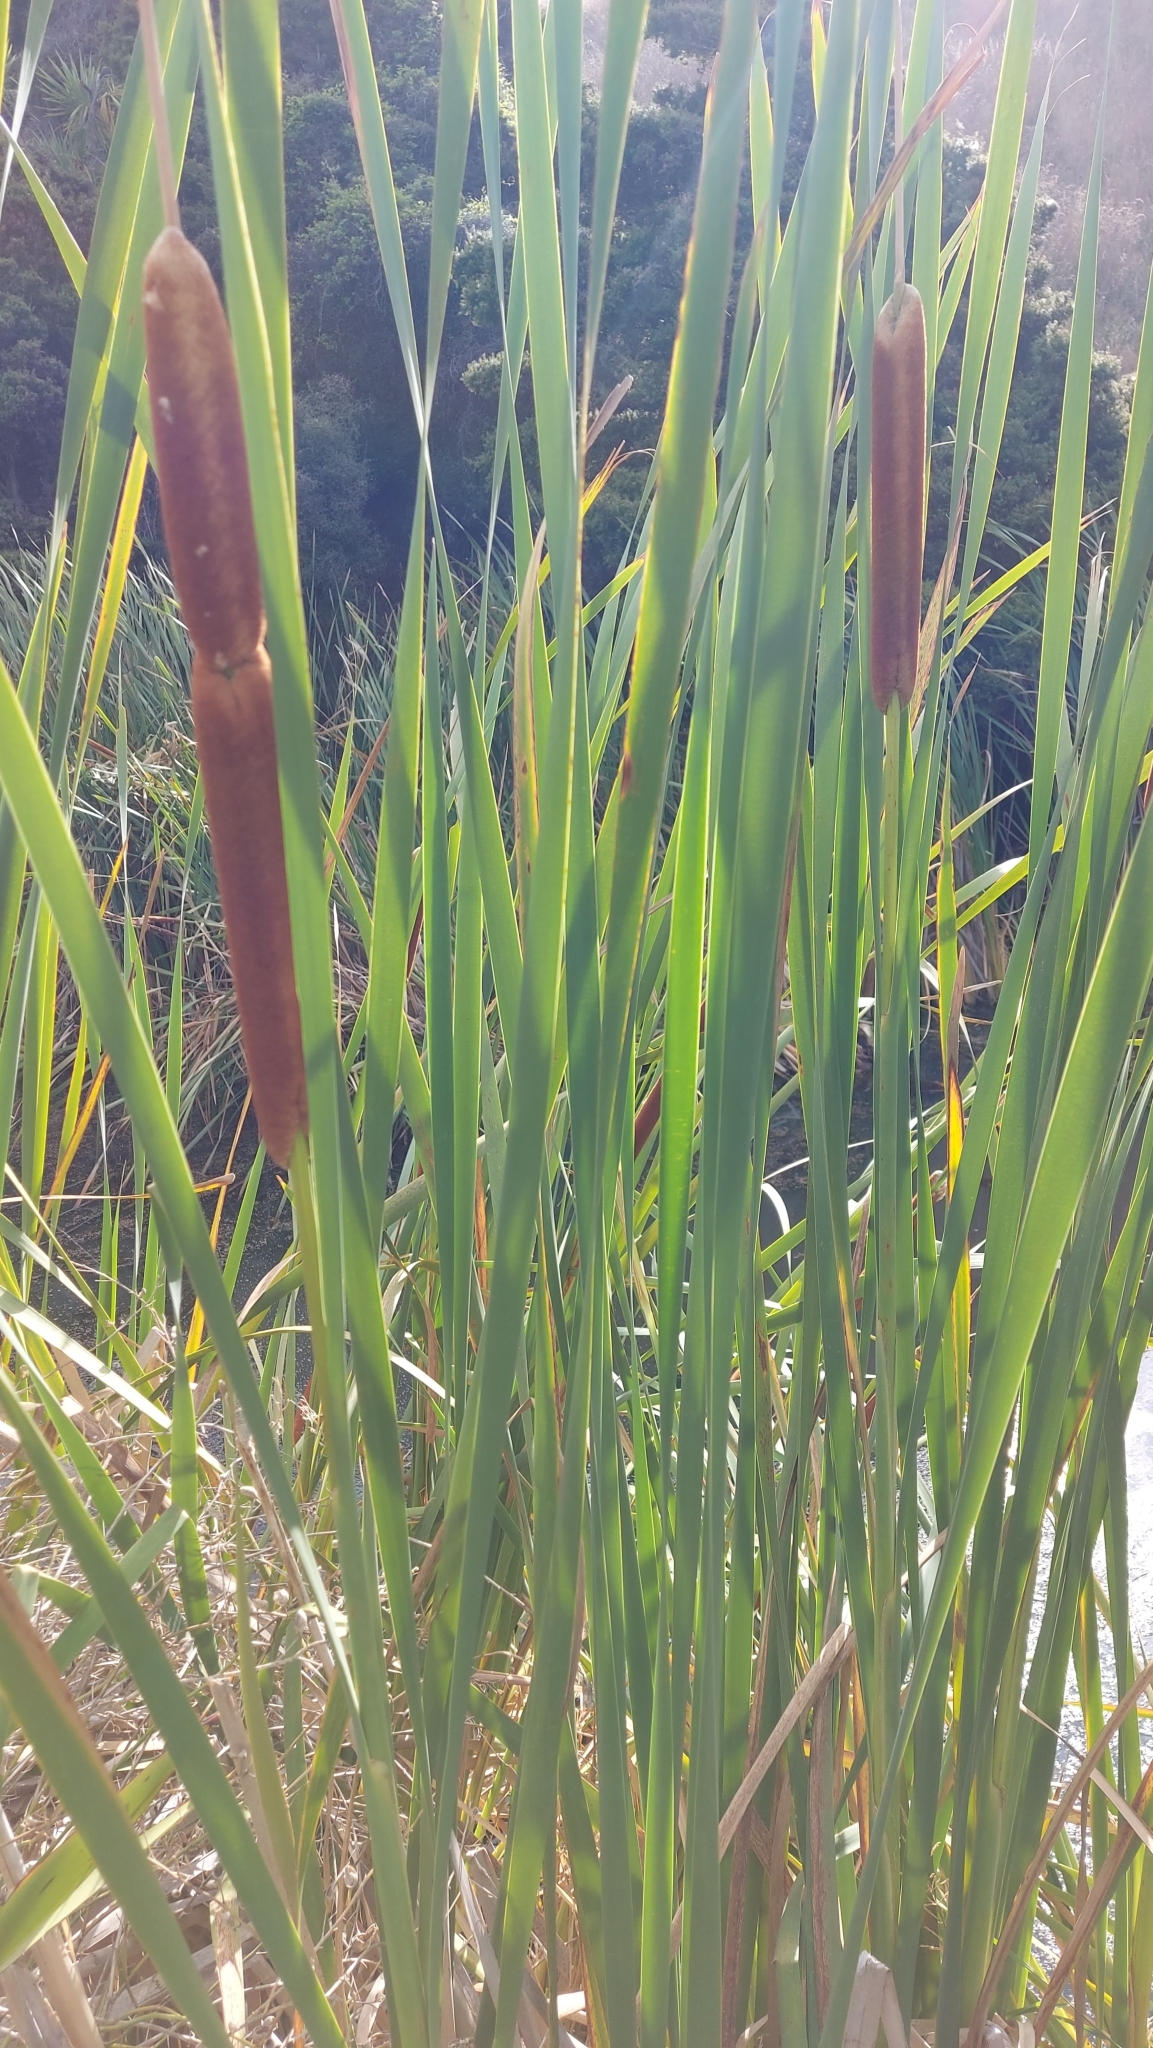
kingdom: Plantae
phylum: Tracheophyta
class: Liliopsida
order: Poales
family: Typhaceae
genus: Typha
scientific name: Typha orientalis
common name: Bullrush
